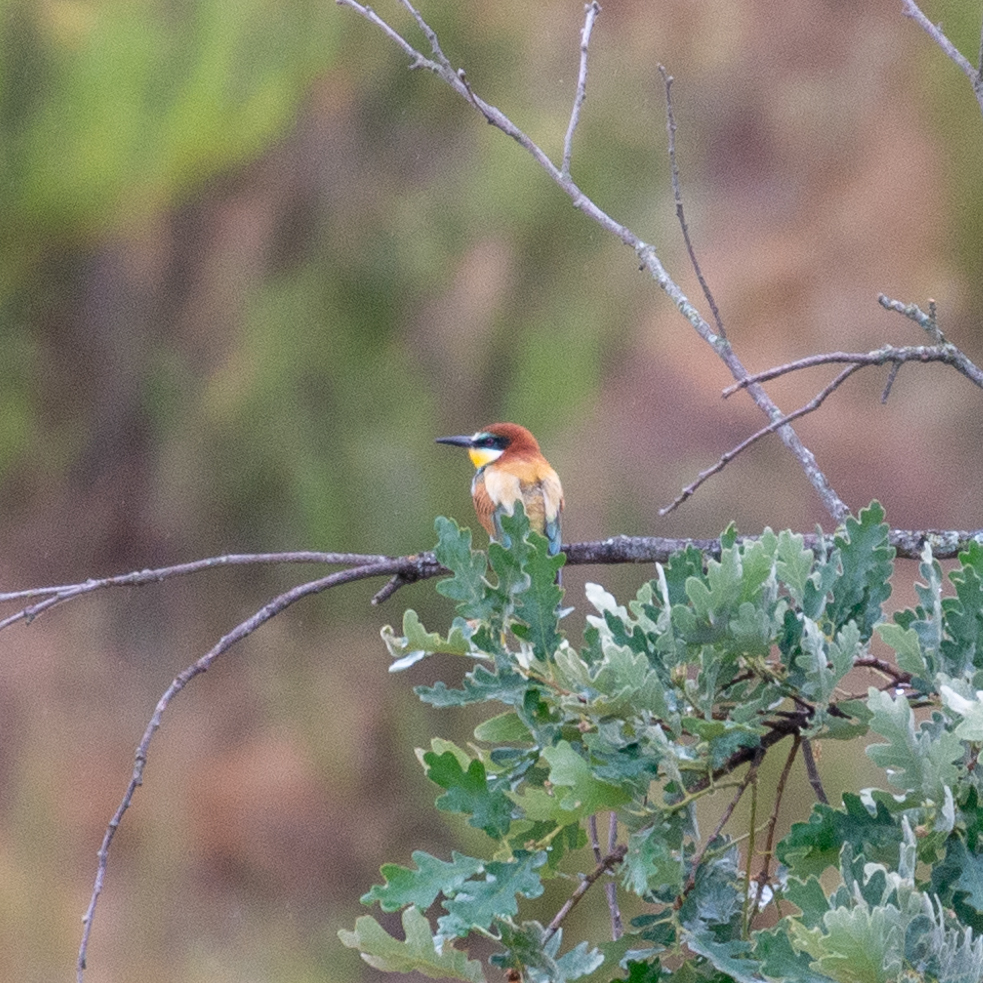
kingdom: Animalia
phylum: Chordata
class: Aves
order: Coraciiformes
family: Meropidae
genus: Merops
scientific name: Merops apiaster
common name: European bee-eater
